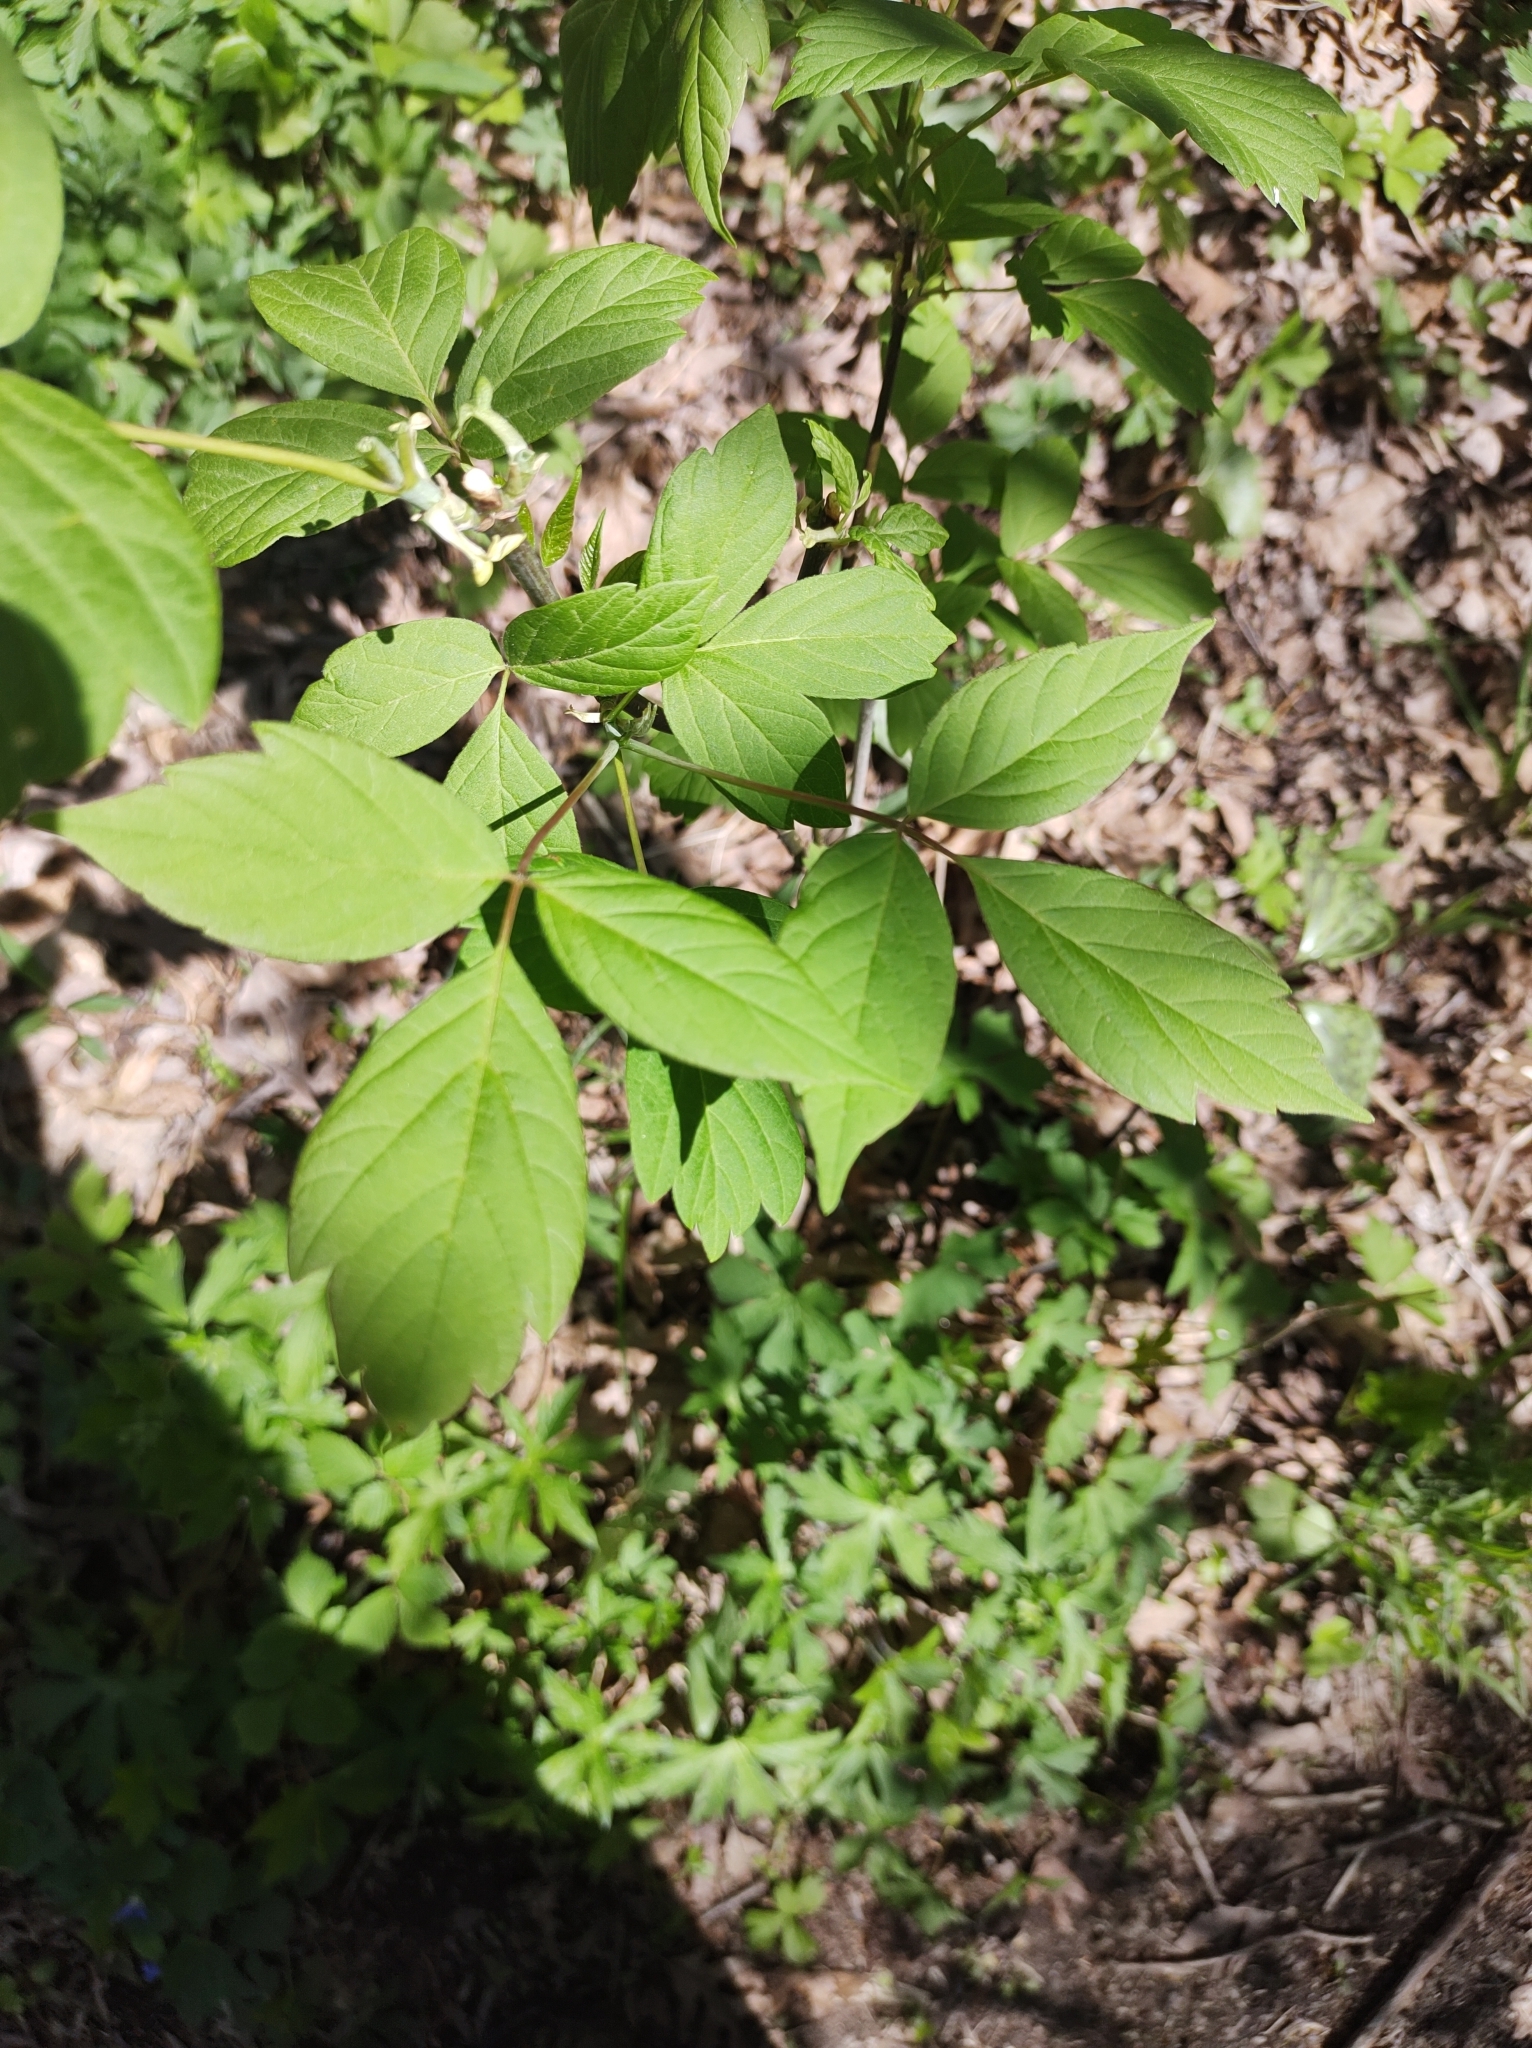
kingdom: Plantae
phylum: Tracheophyta
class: Magnoliopsida
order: Sapindales
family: Sapindaceae
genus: Acer
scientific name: Acer negundo
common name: Ashleaf maple
